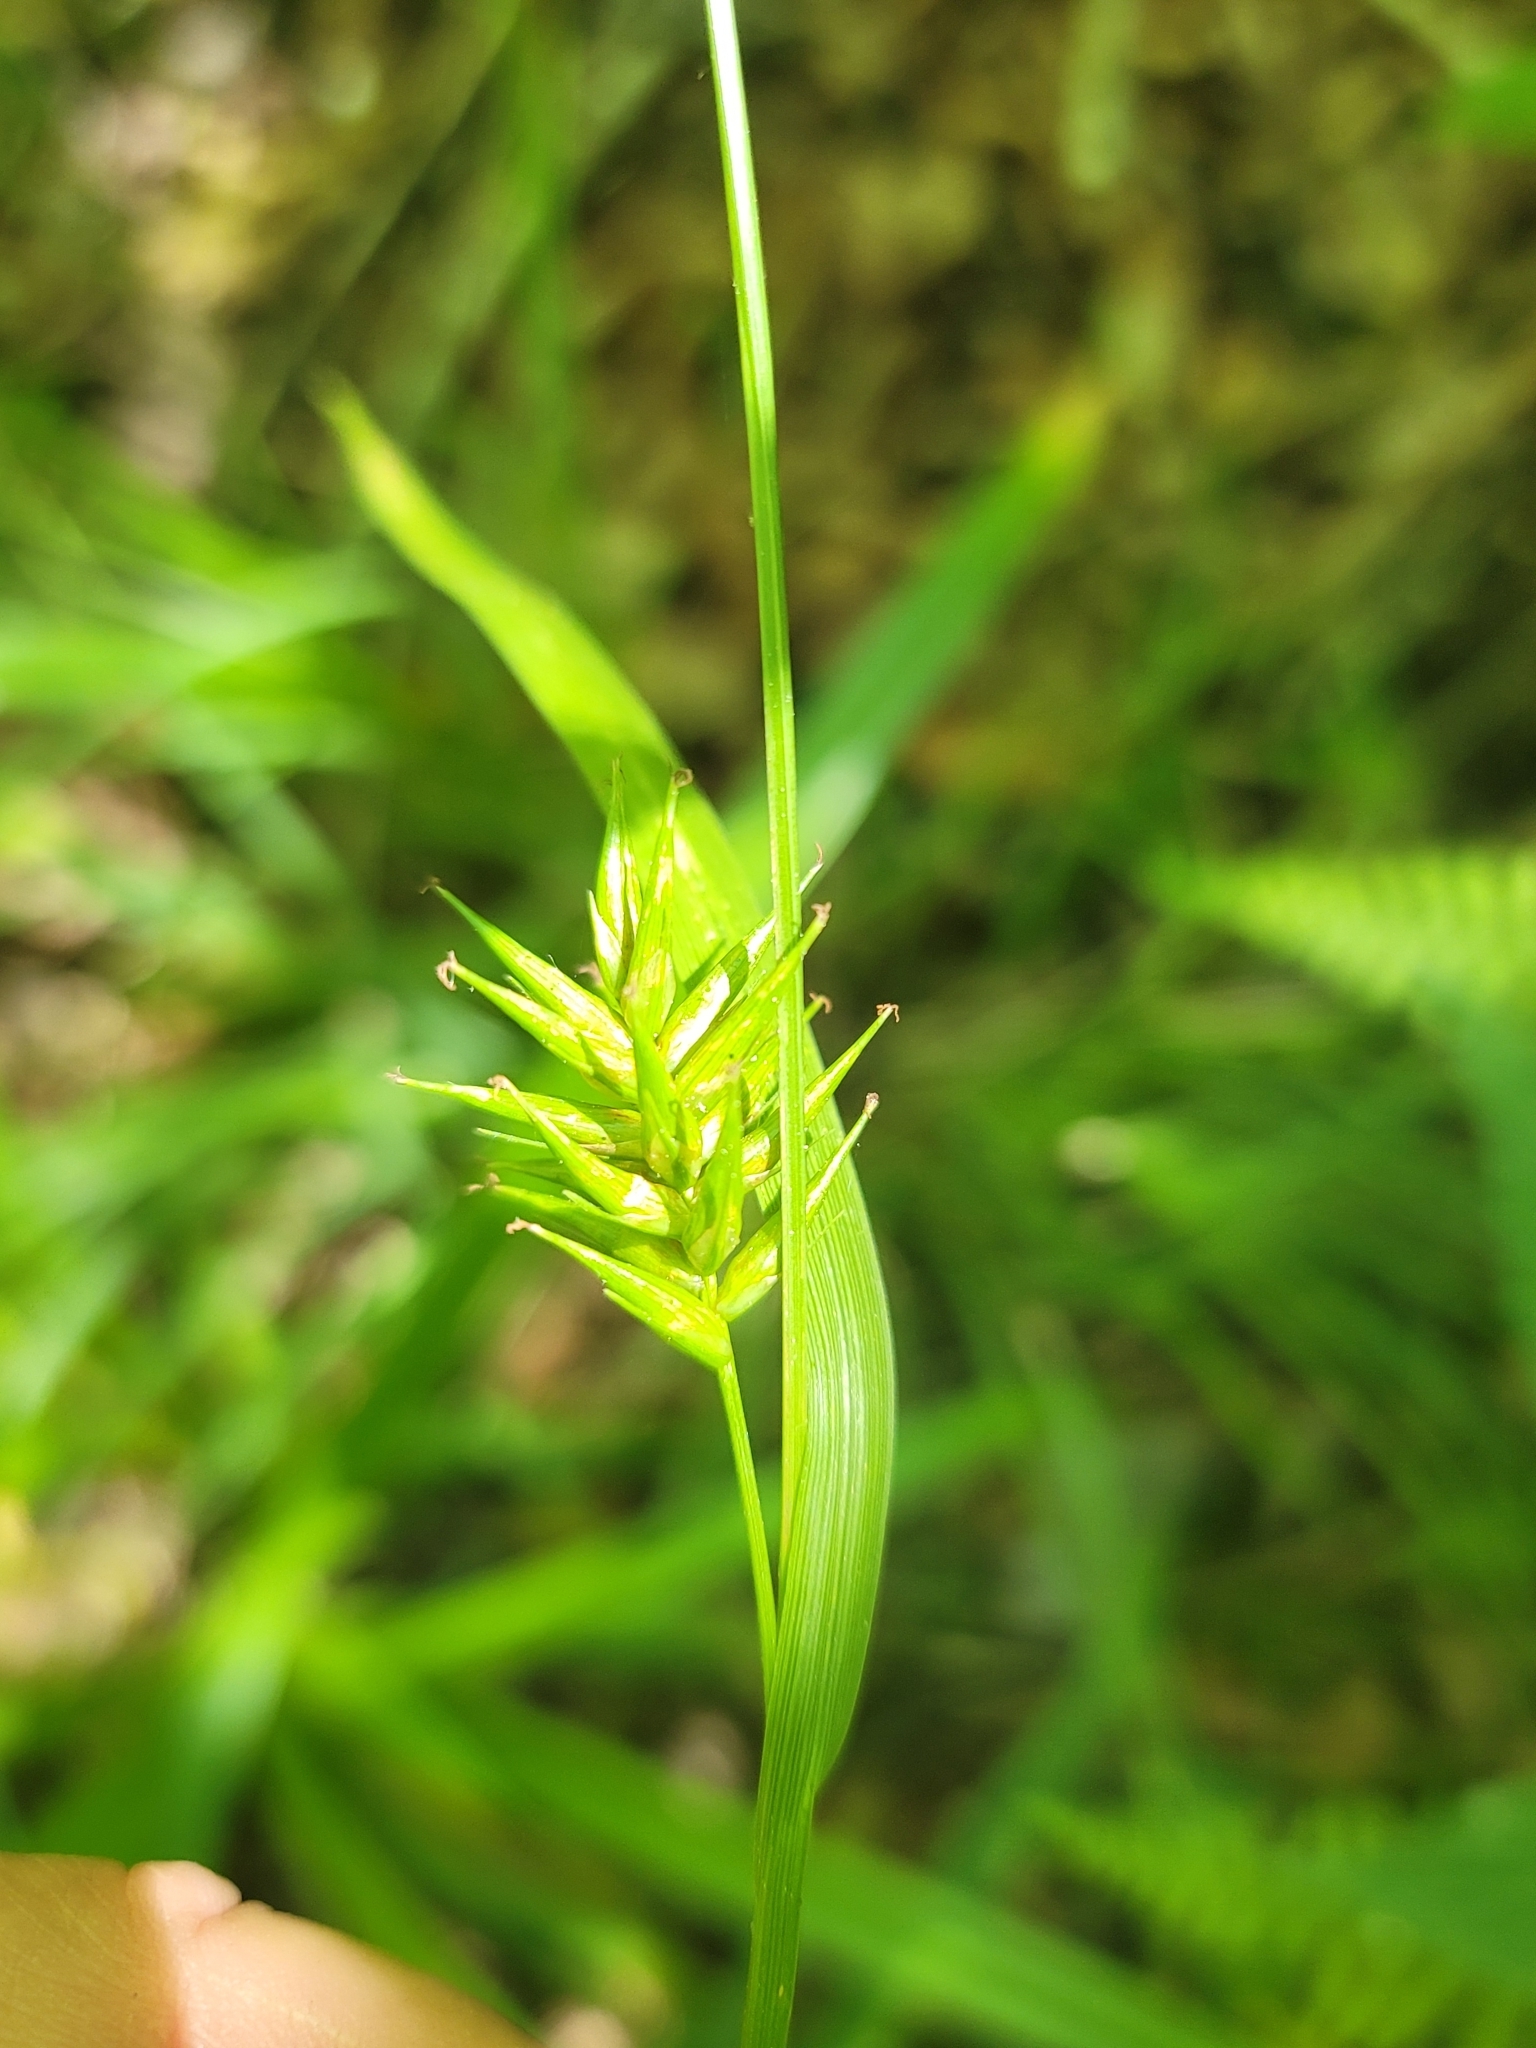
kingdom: Plantae
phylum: Tracheophyta
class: Liliopsida
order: Poales
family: Cyperaceae
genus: Carex
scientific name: Carex folliculata
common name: Northern long sedge
